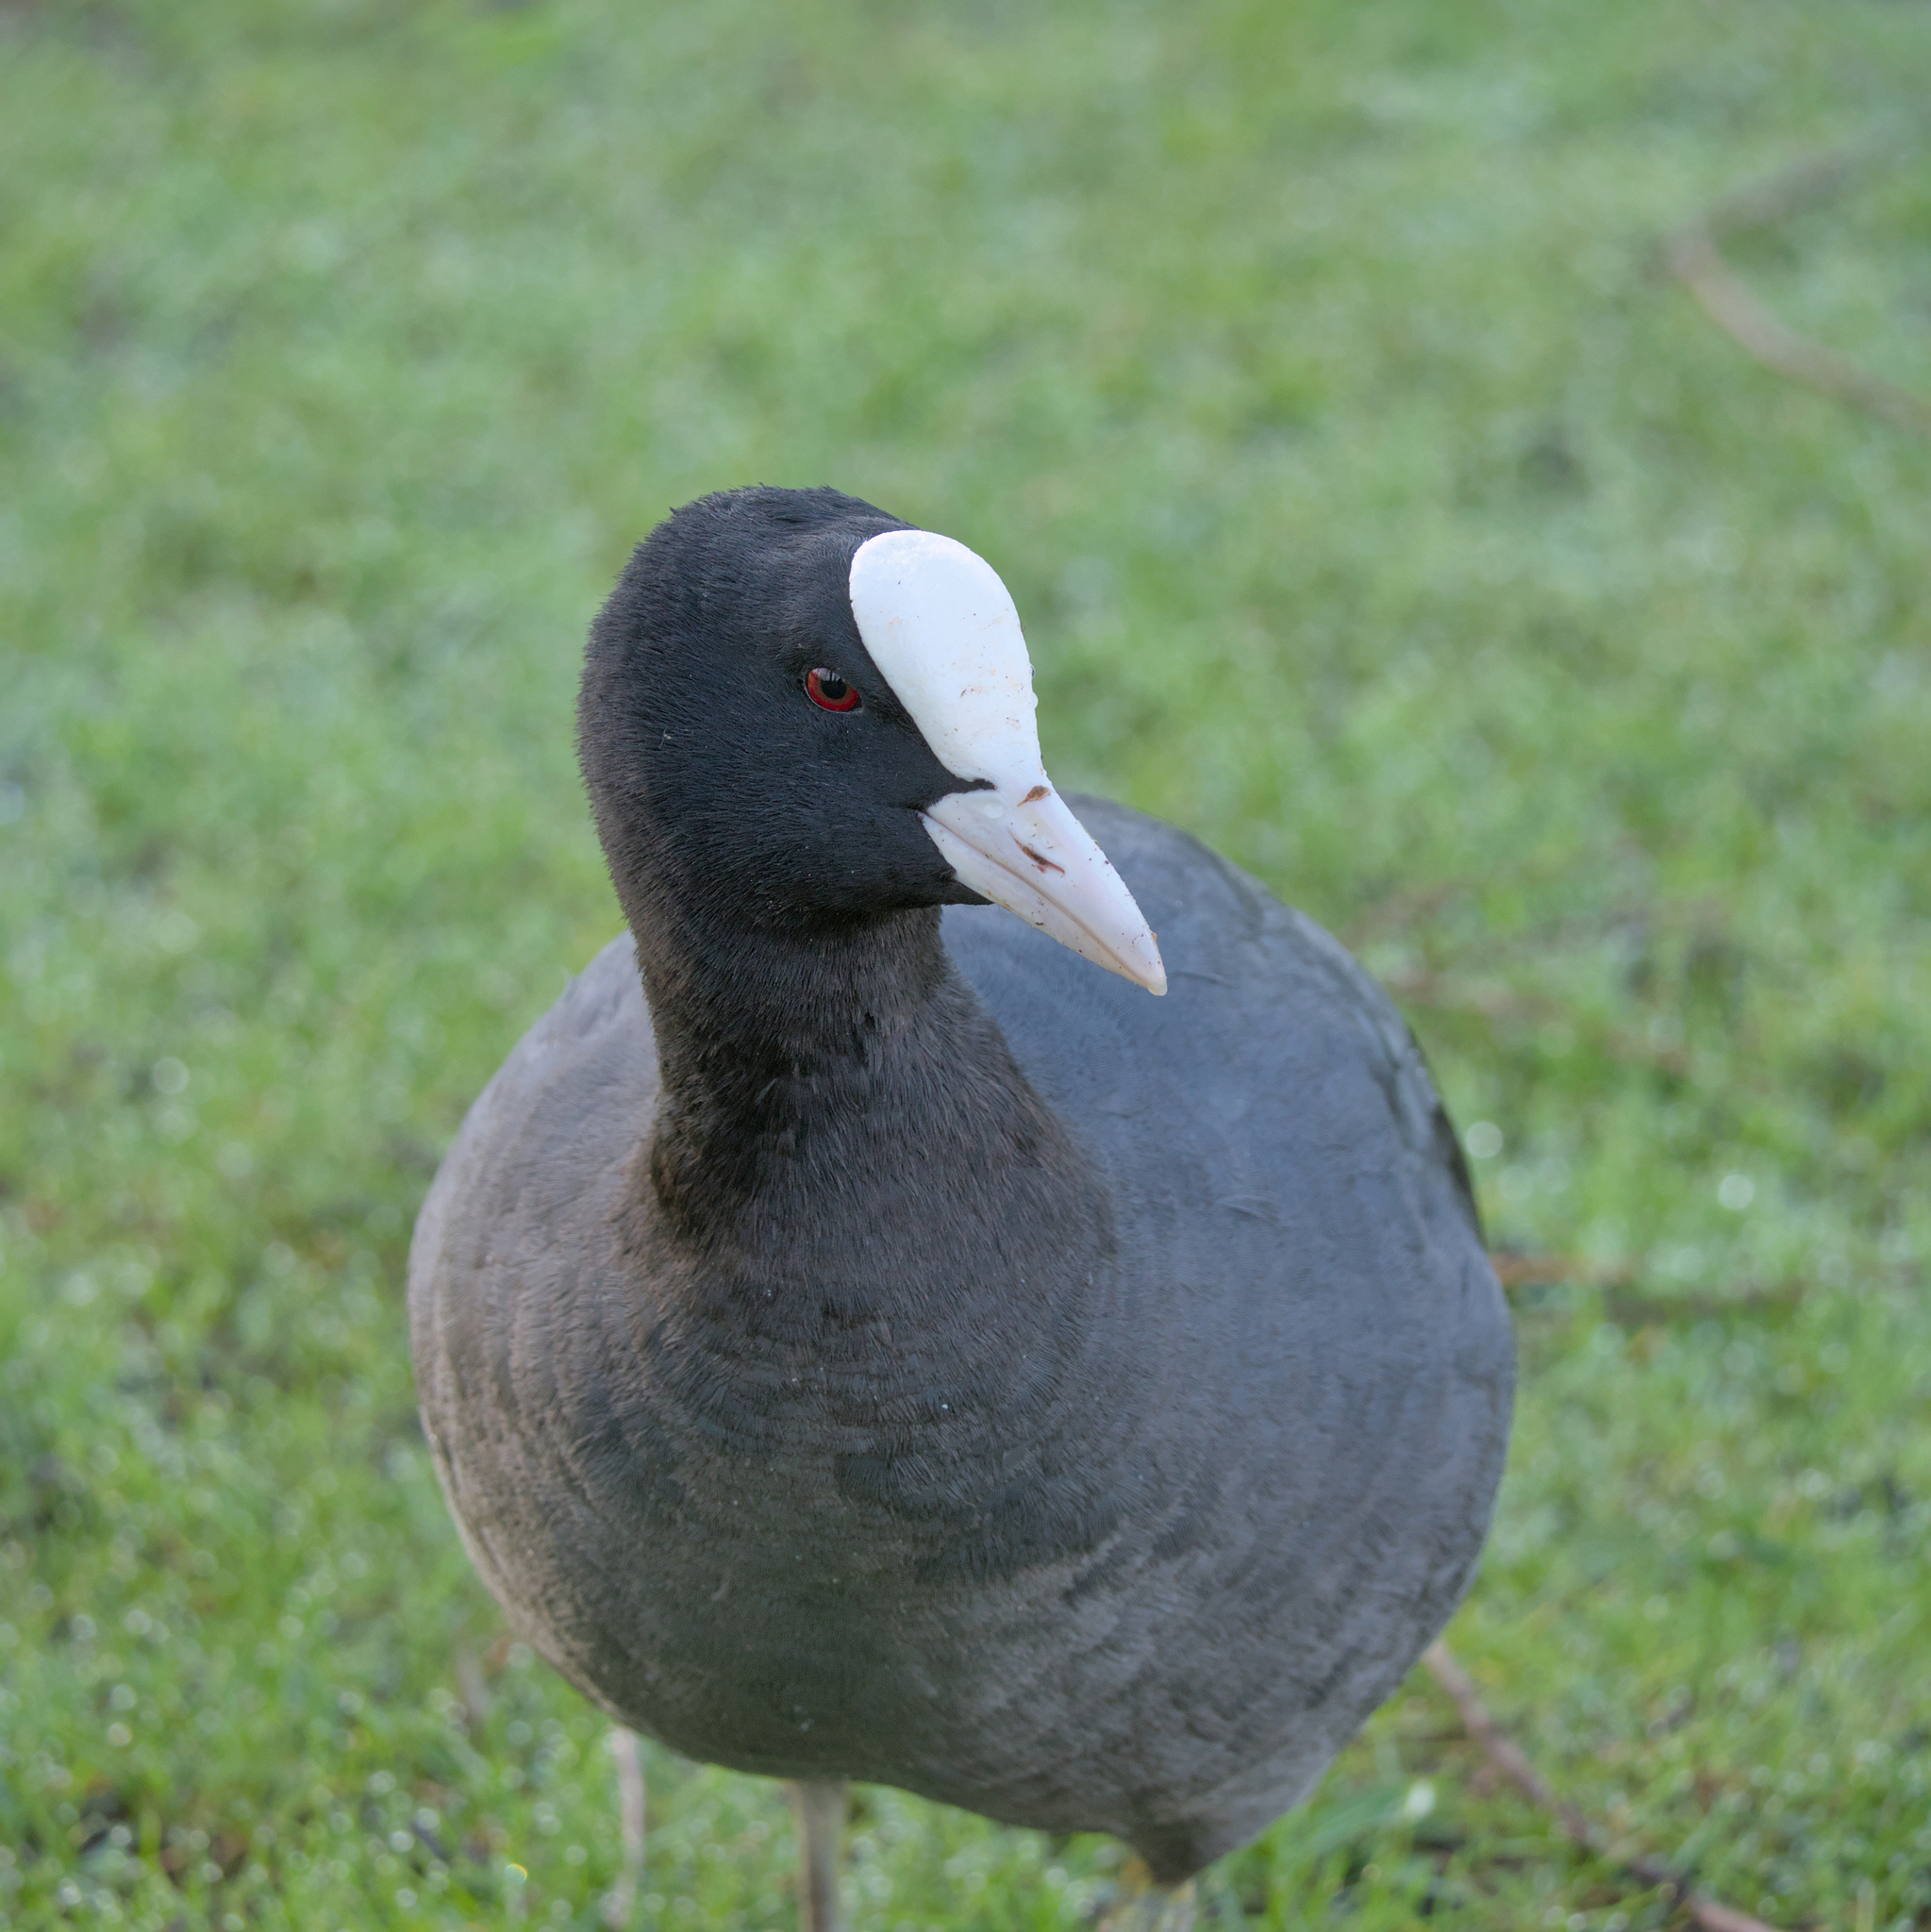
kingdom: Animalia
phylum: Chordata
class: Aves
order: Gruiformes
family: Rallidae
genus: Fulica
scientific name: Fulica atra
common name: Eurasian coot
